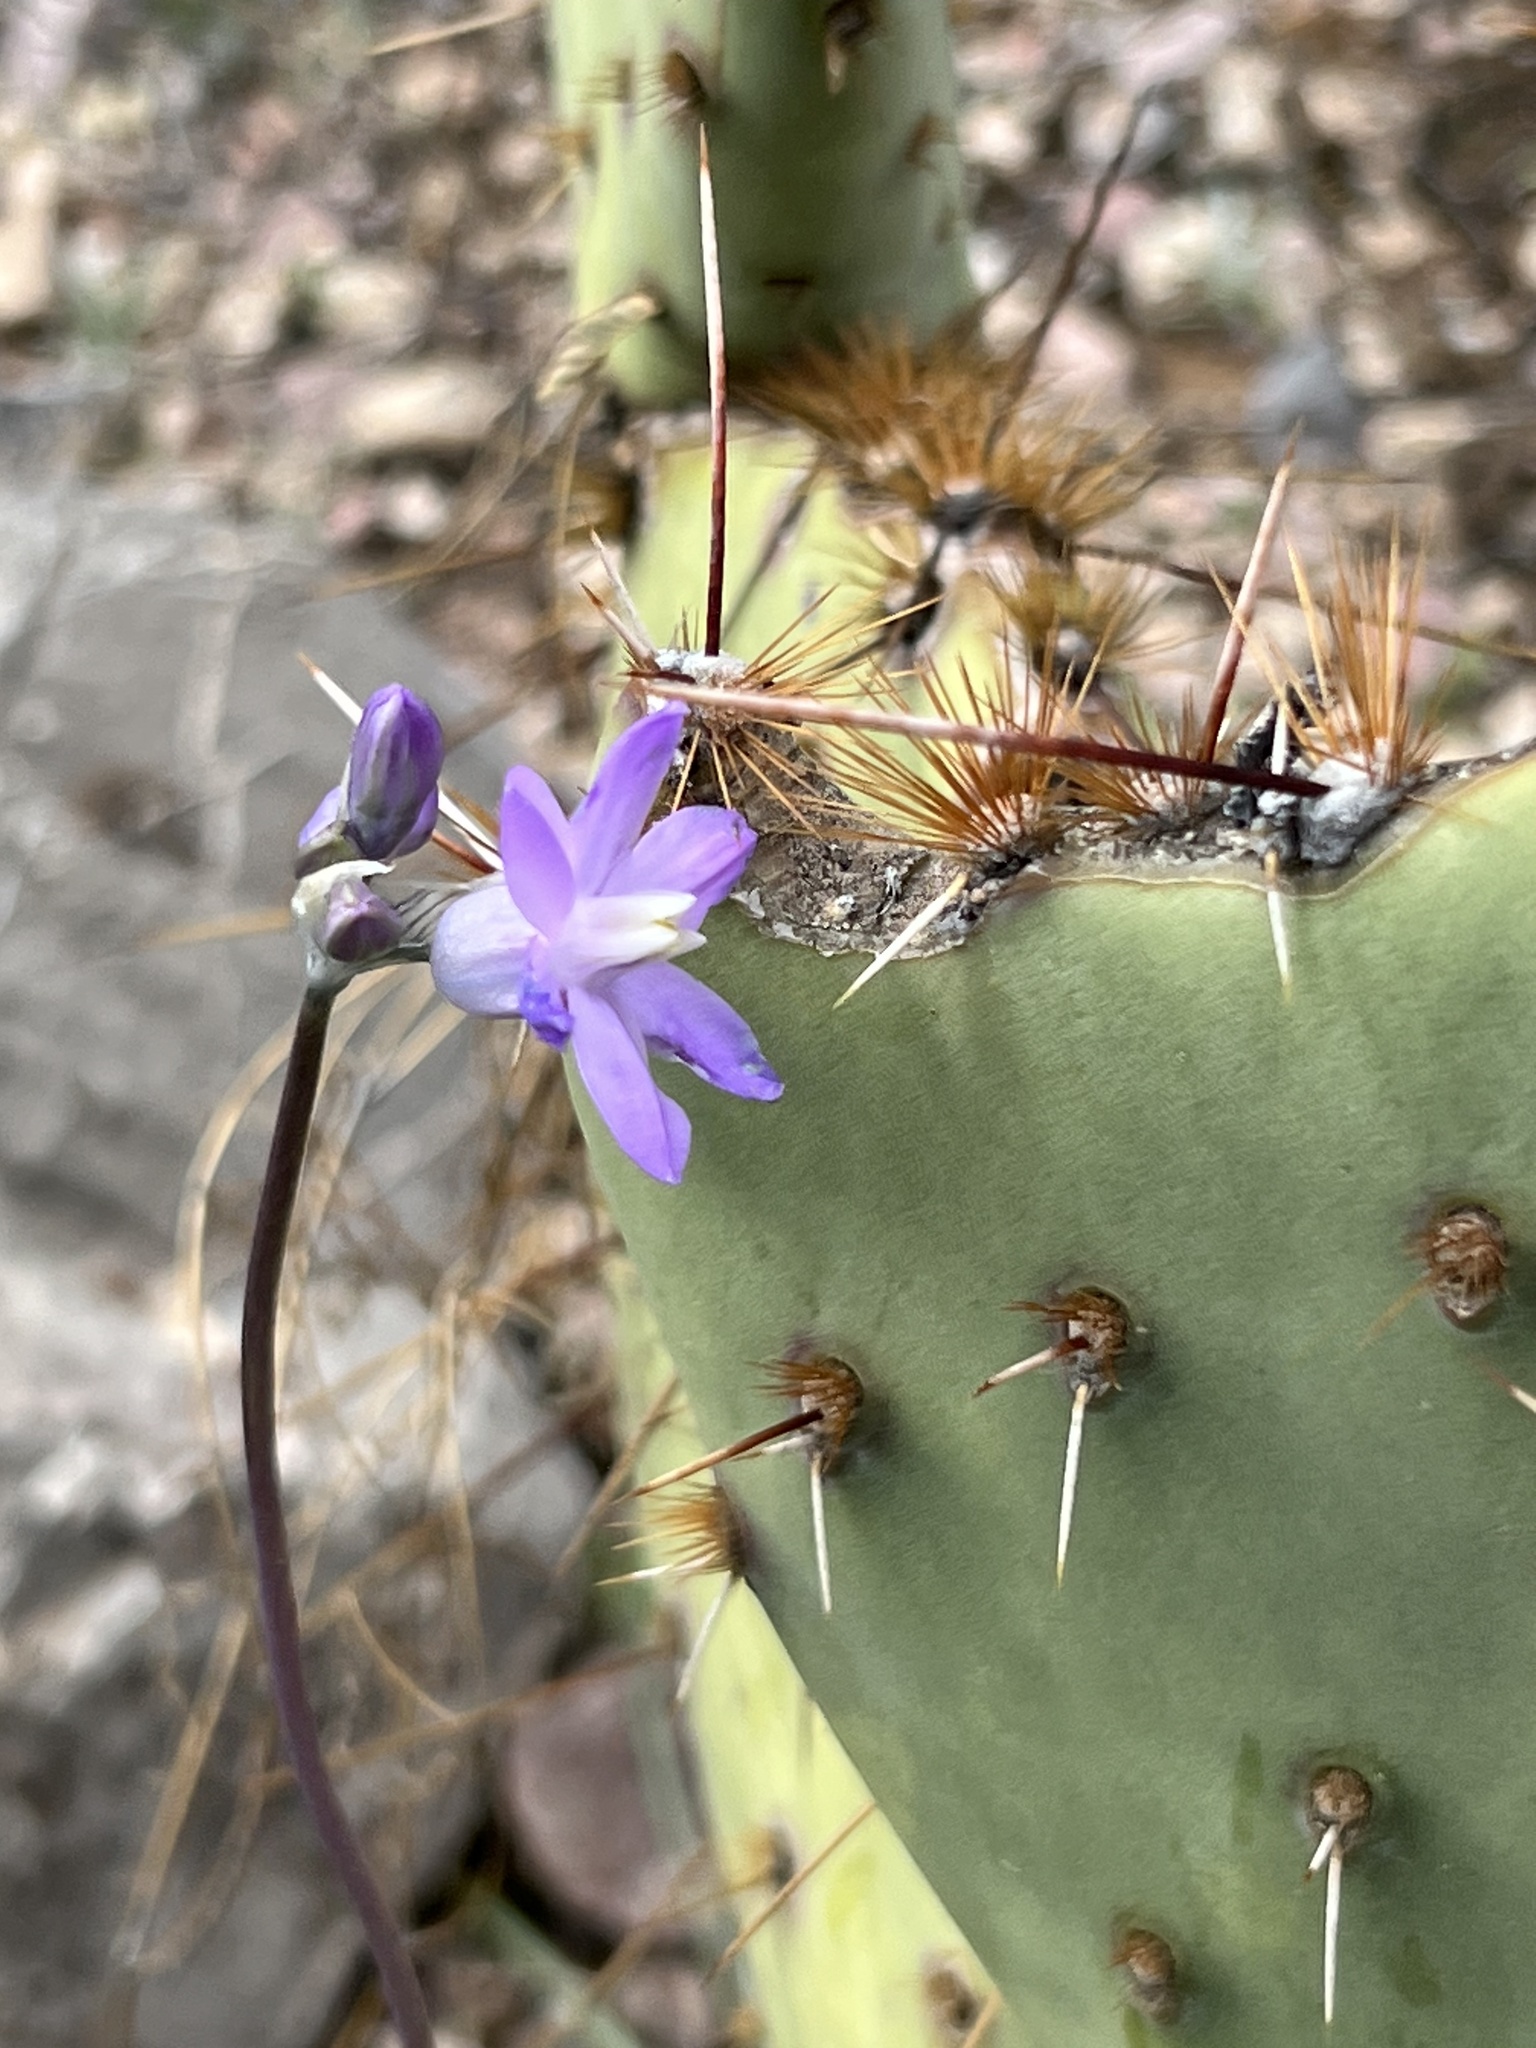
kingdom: Plantae
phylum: Tracheophyta
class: Liliopsida
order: Asparagales
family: Asparagaceae
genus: Dipterostemon
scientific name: Dipterostemon capitatus
